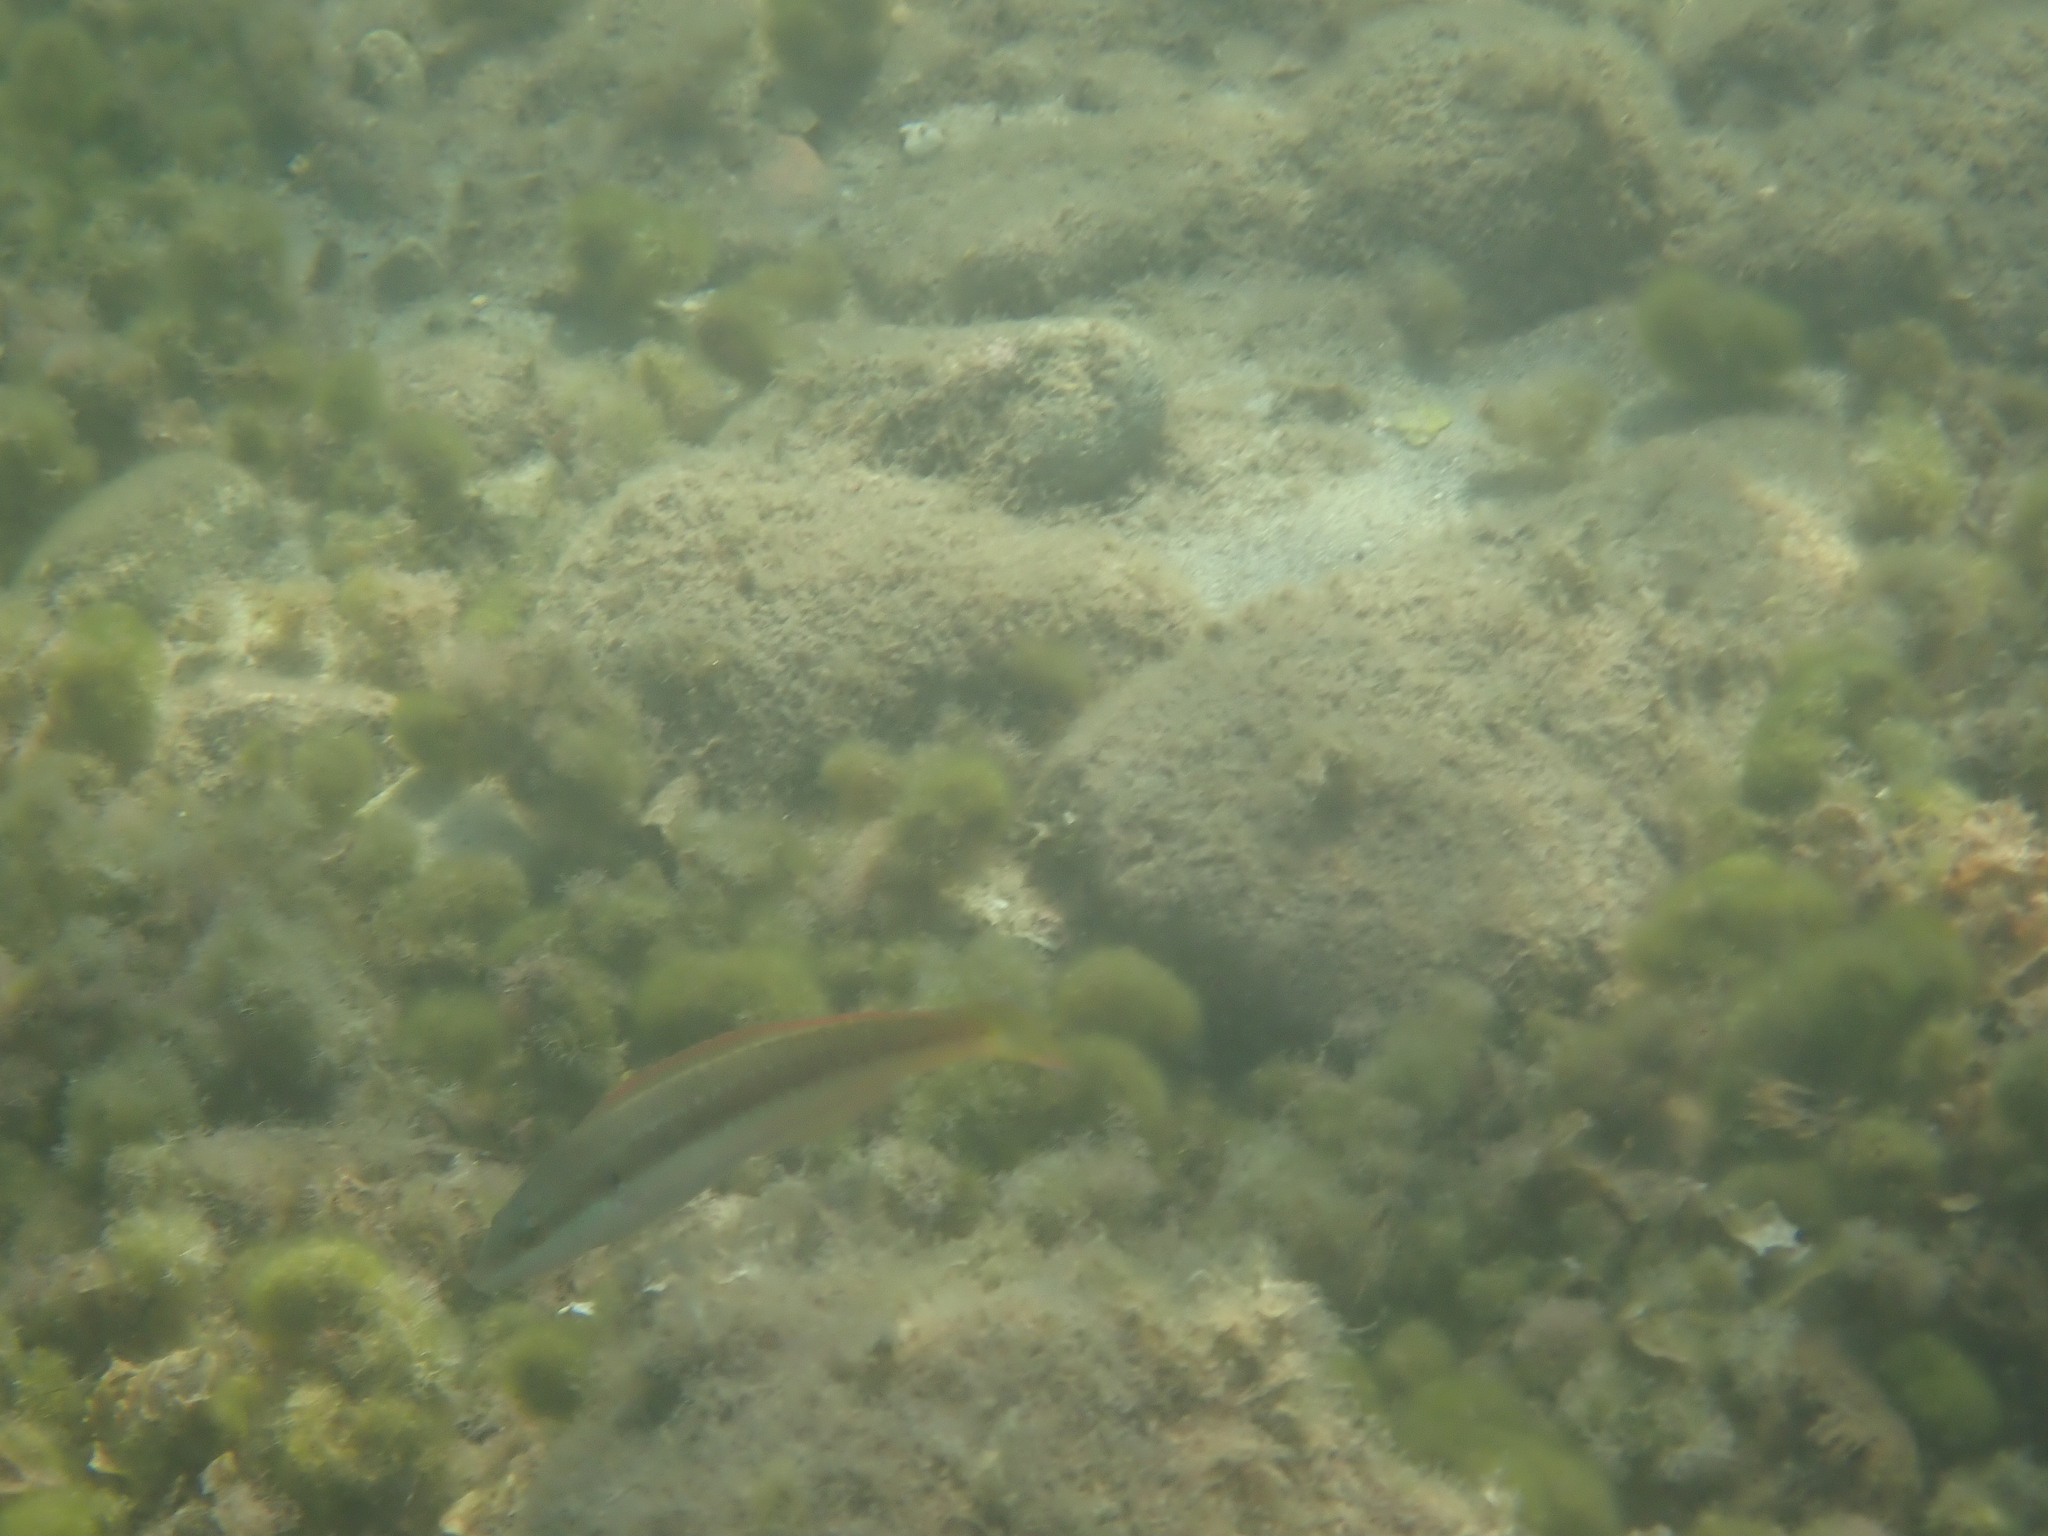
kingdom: Animalia
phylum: Chordata
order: Perciformes
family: Labridae
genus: Coris
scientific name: Coris julis
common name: Rainbow wrasse
